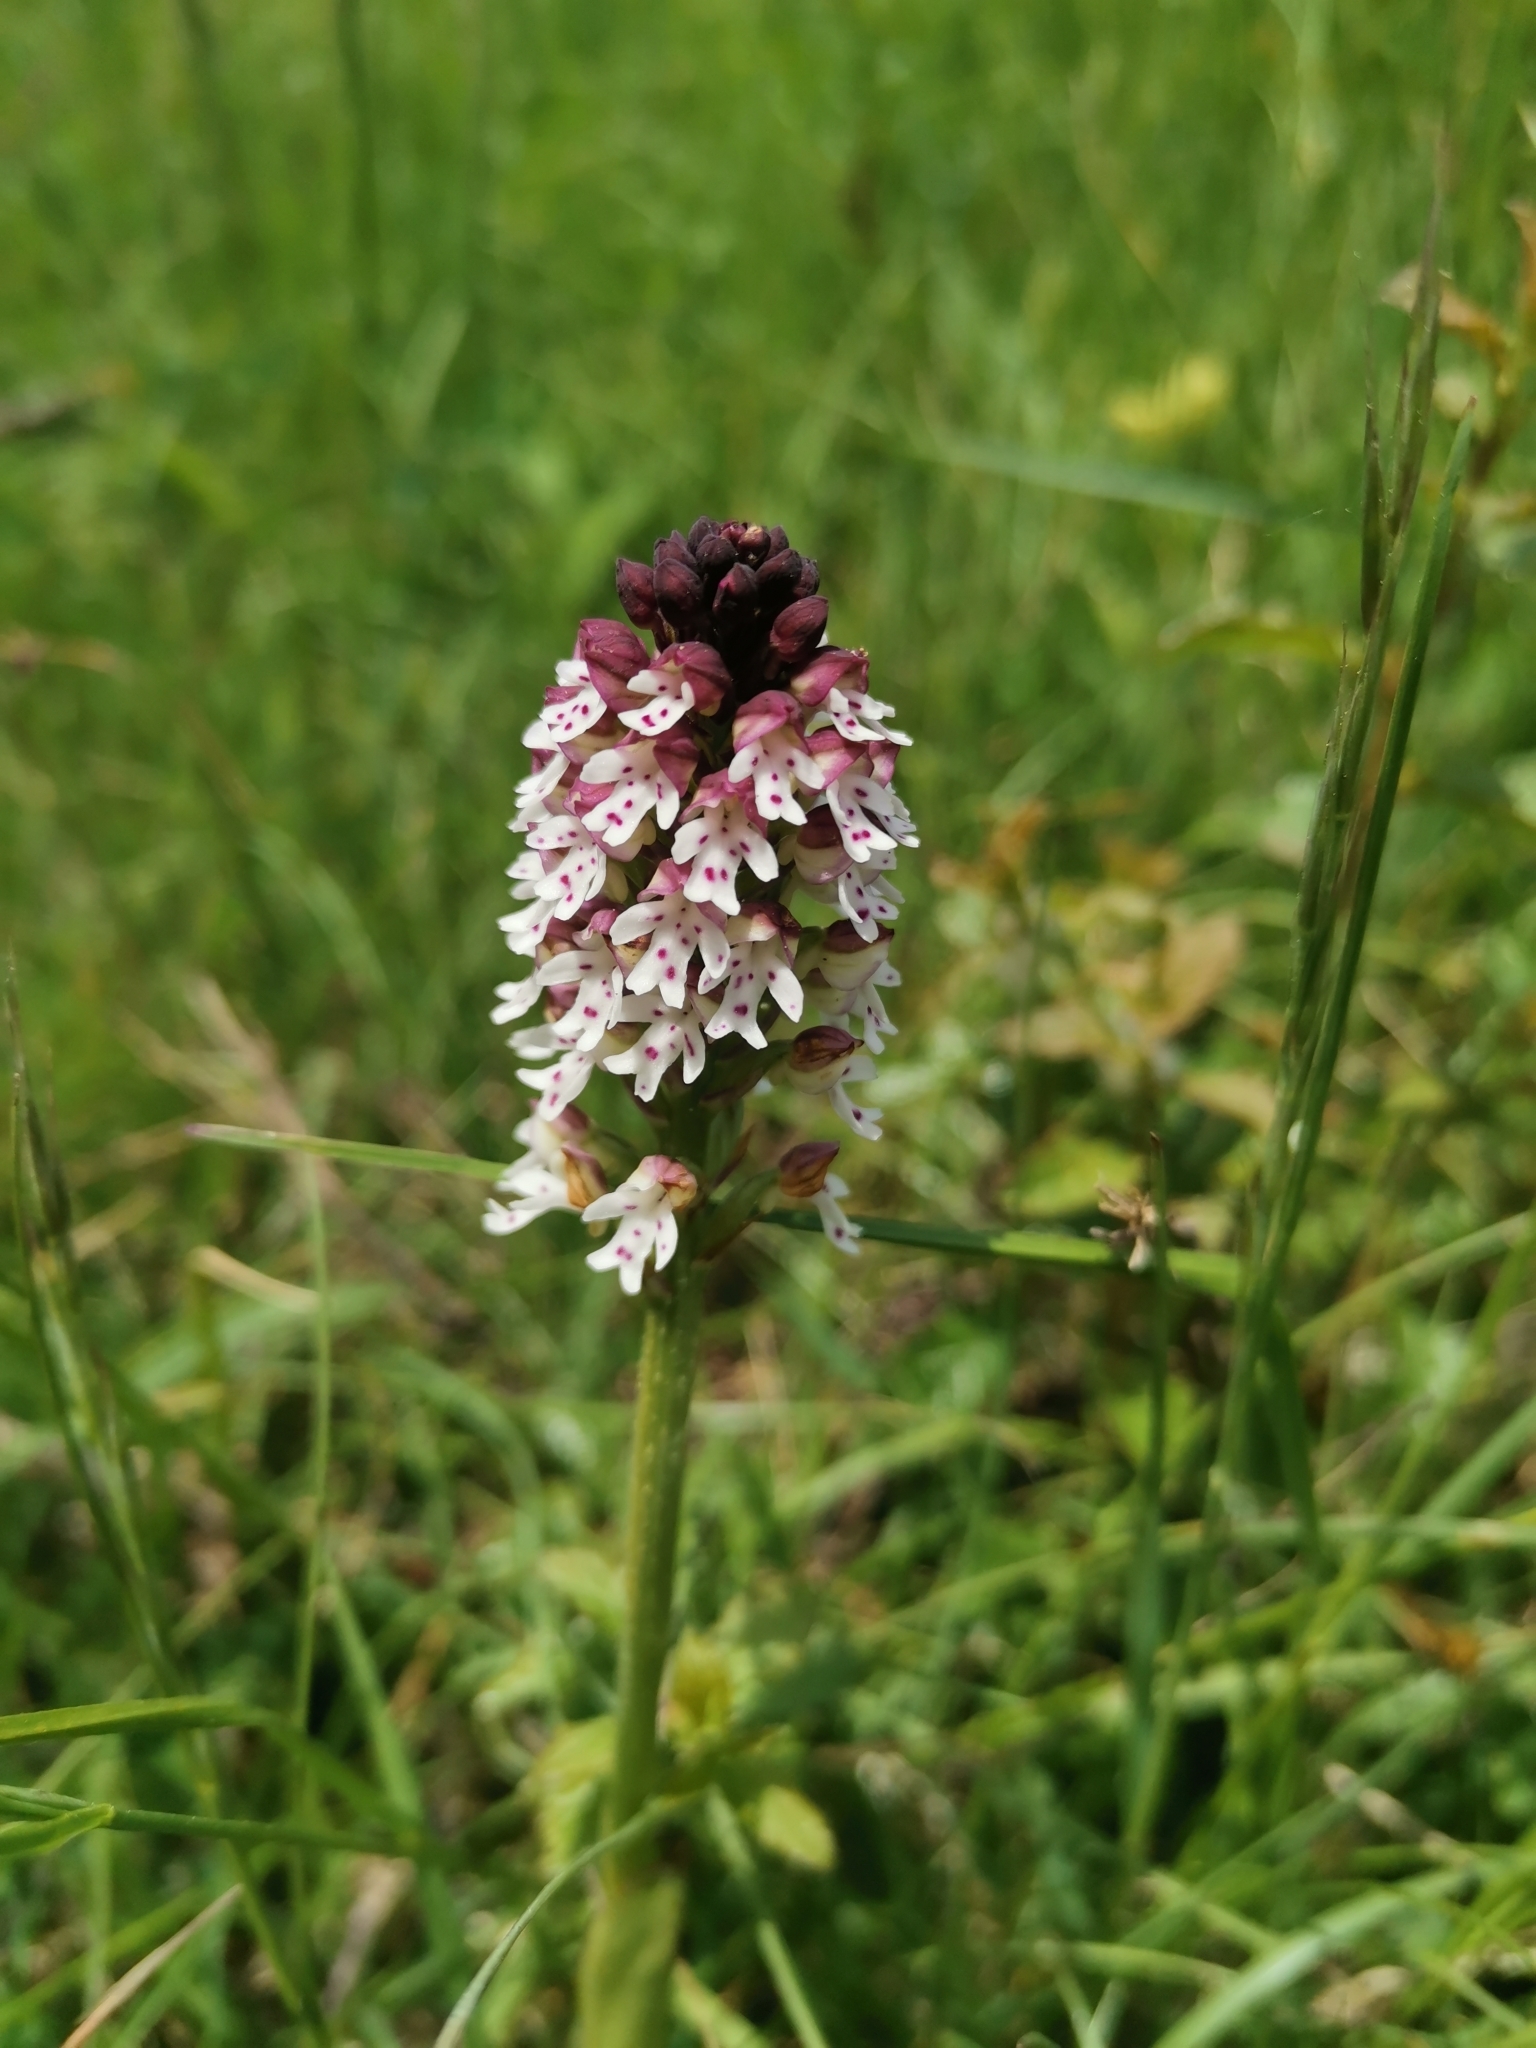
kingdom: Plantae
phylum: Tracheophyta
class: Liliopsida
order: Asparagales
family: Orchidaceae
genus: Neotinea
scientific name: Neotinea ustulata
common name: Burnt orchid
